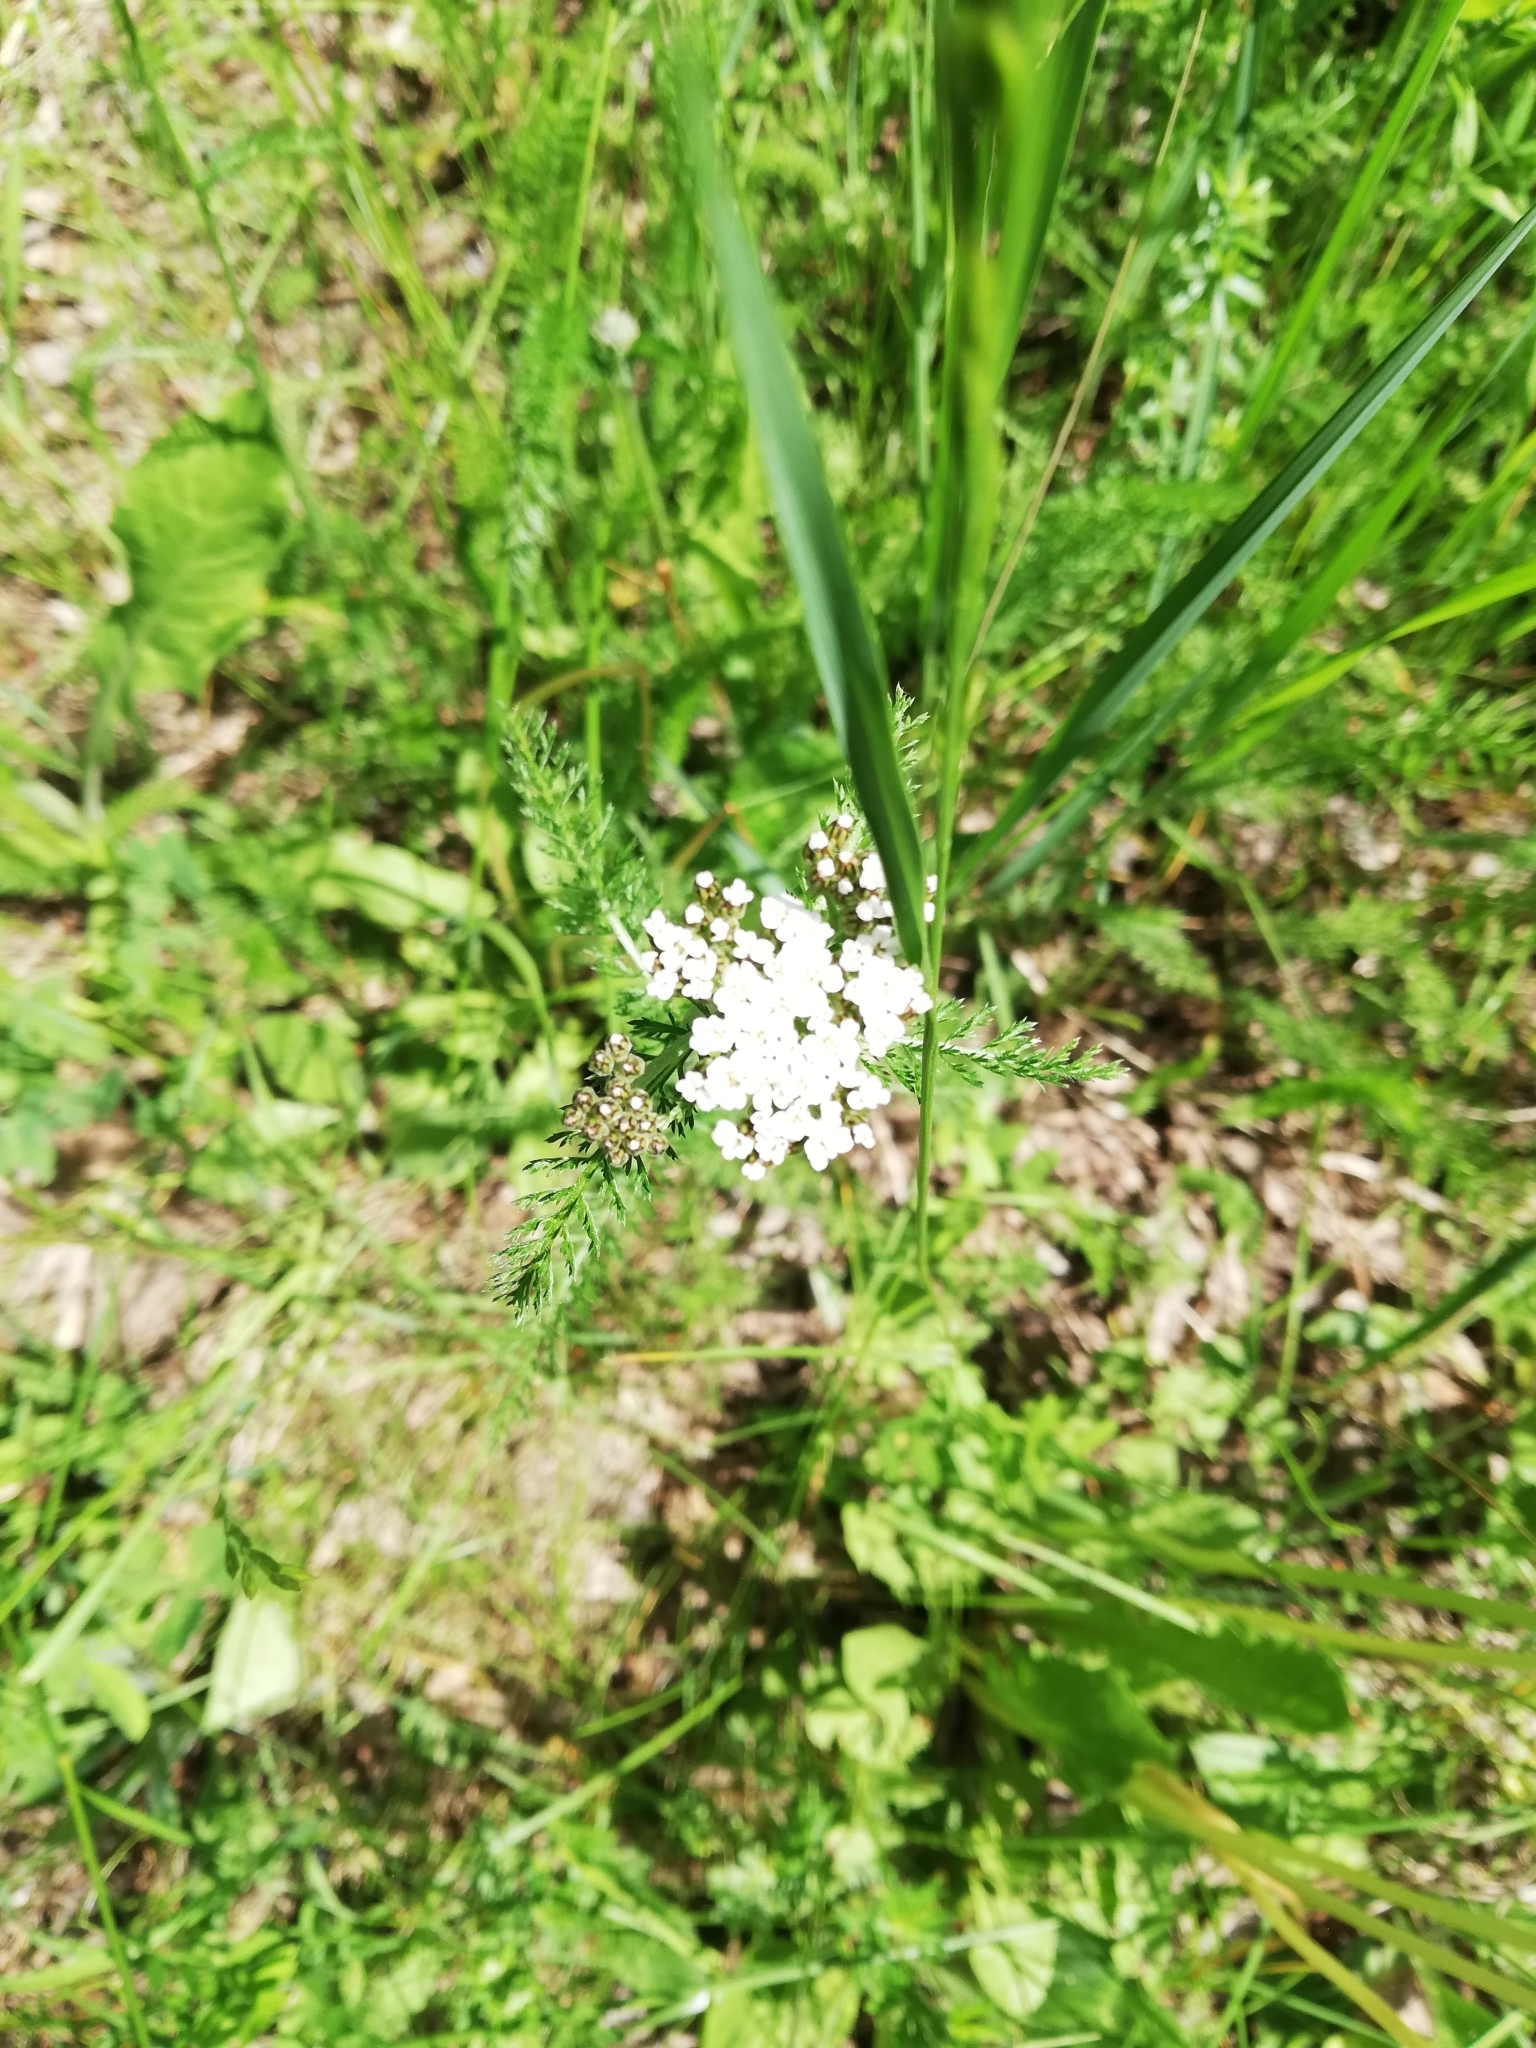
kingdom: Plantae
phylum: Tracheophyta
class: Magnoliopsida
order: Asterales
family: Asteraceae
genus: Achillea
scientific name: Achillea millefolium
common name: Yarrow
